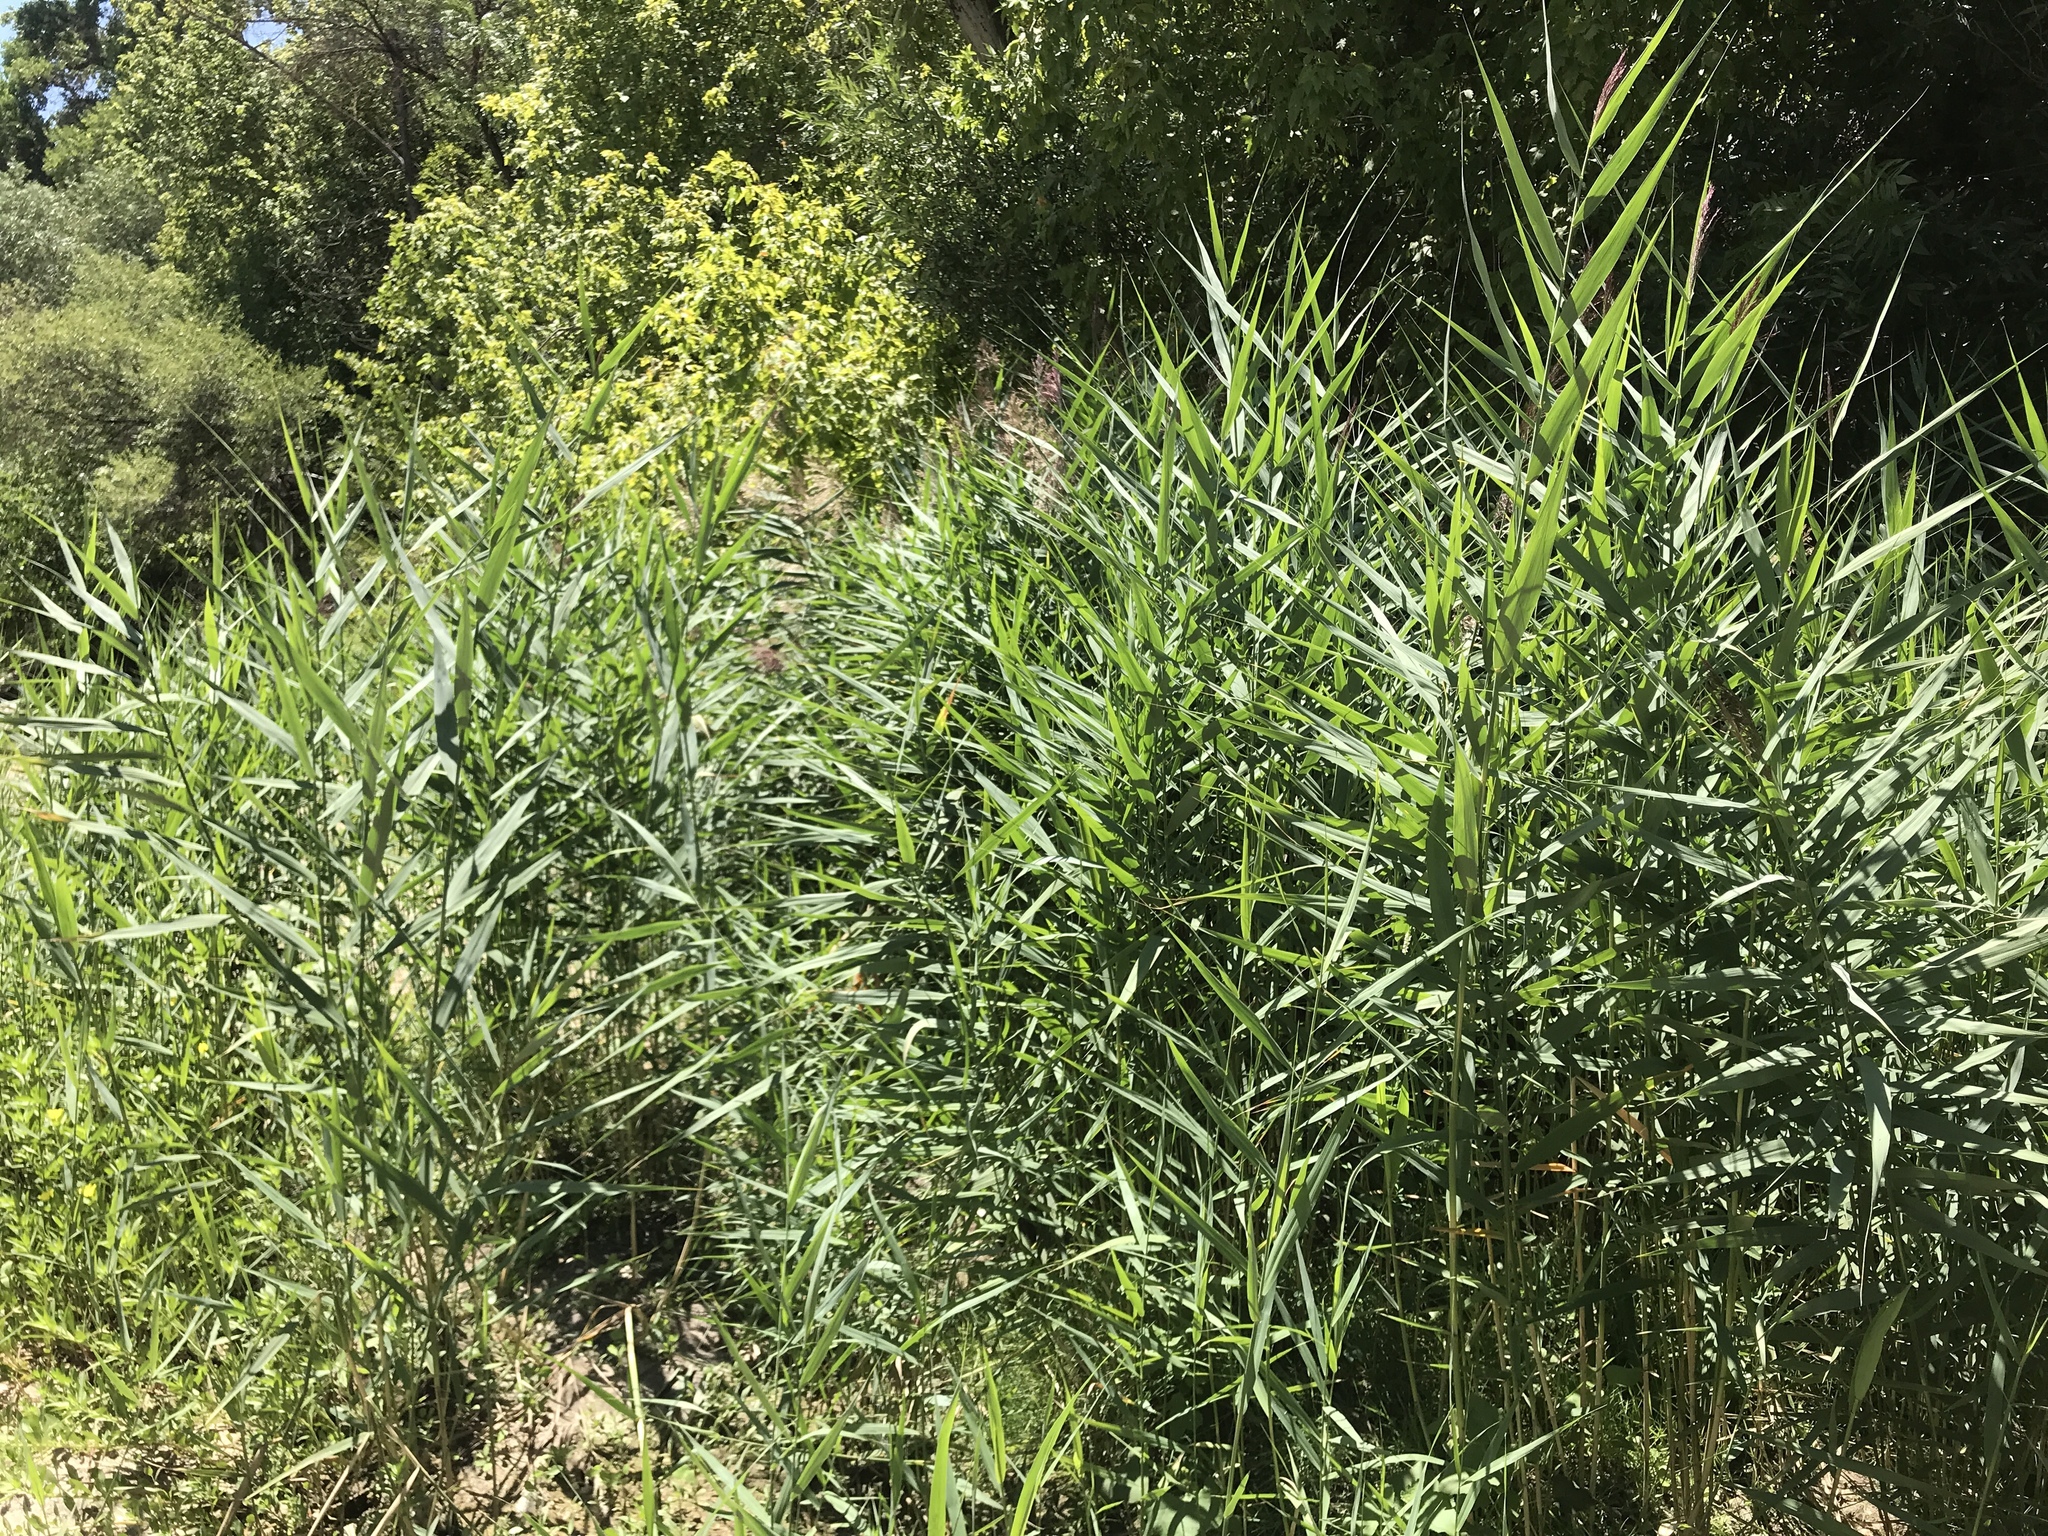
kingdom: Plantae
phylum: Tracheophyta
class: Liliopsida
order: Poales
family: Poaceae
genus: Arundo
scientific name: Arundo donax
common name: Giant reed
